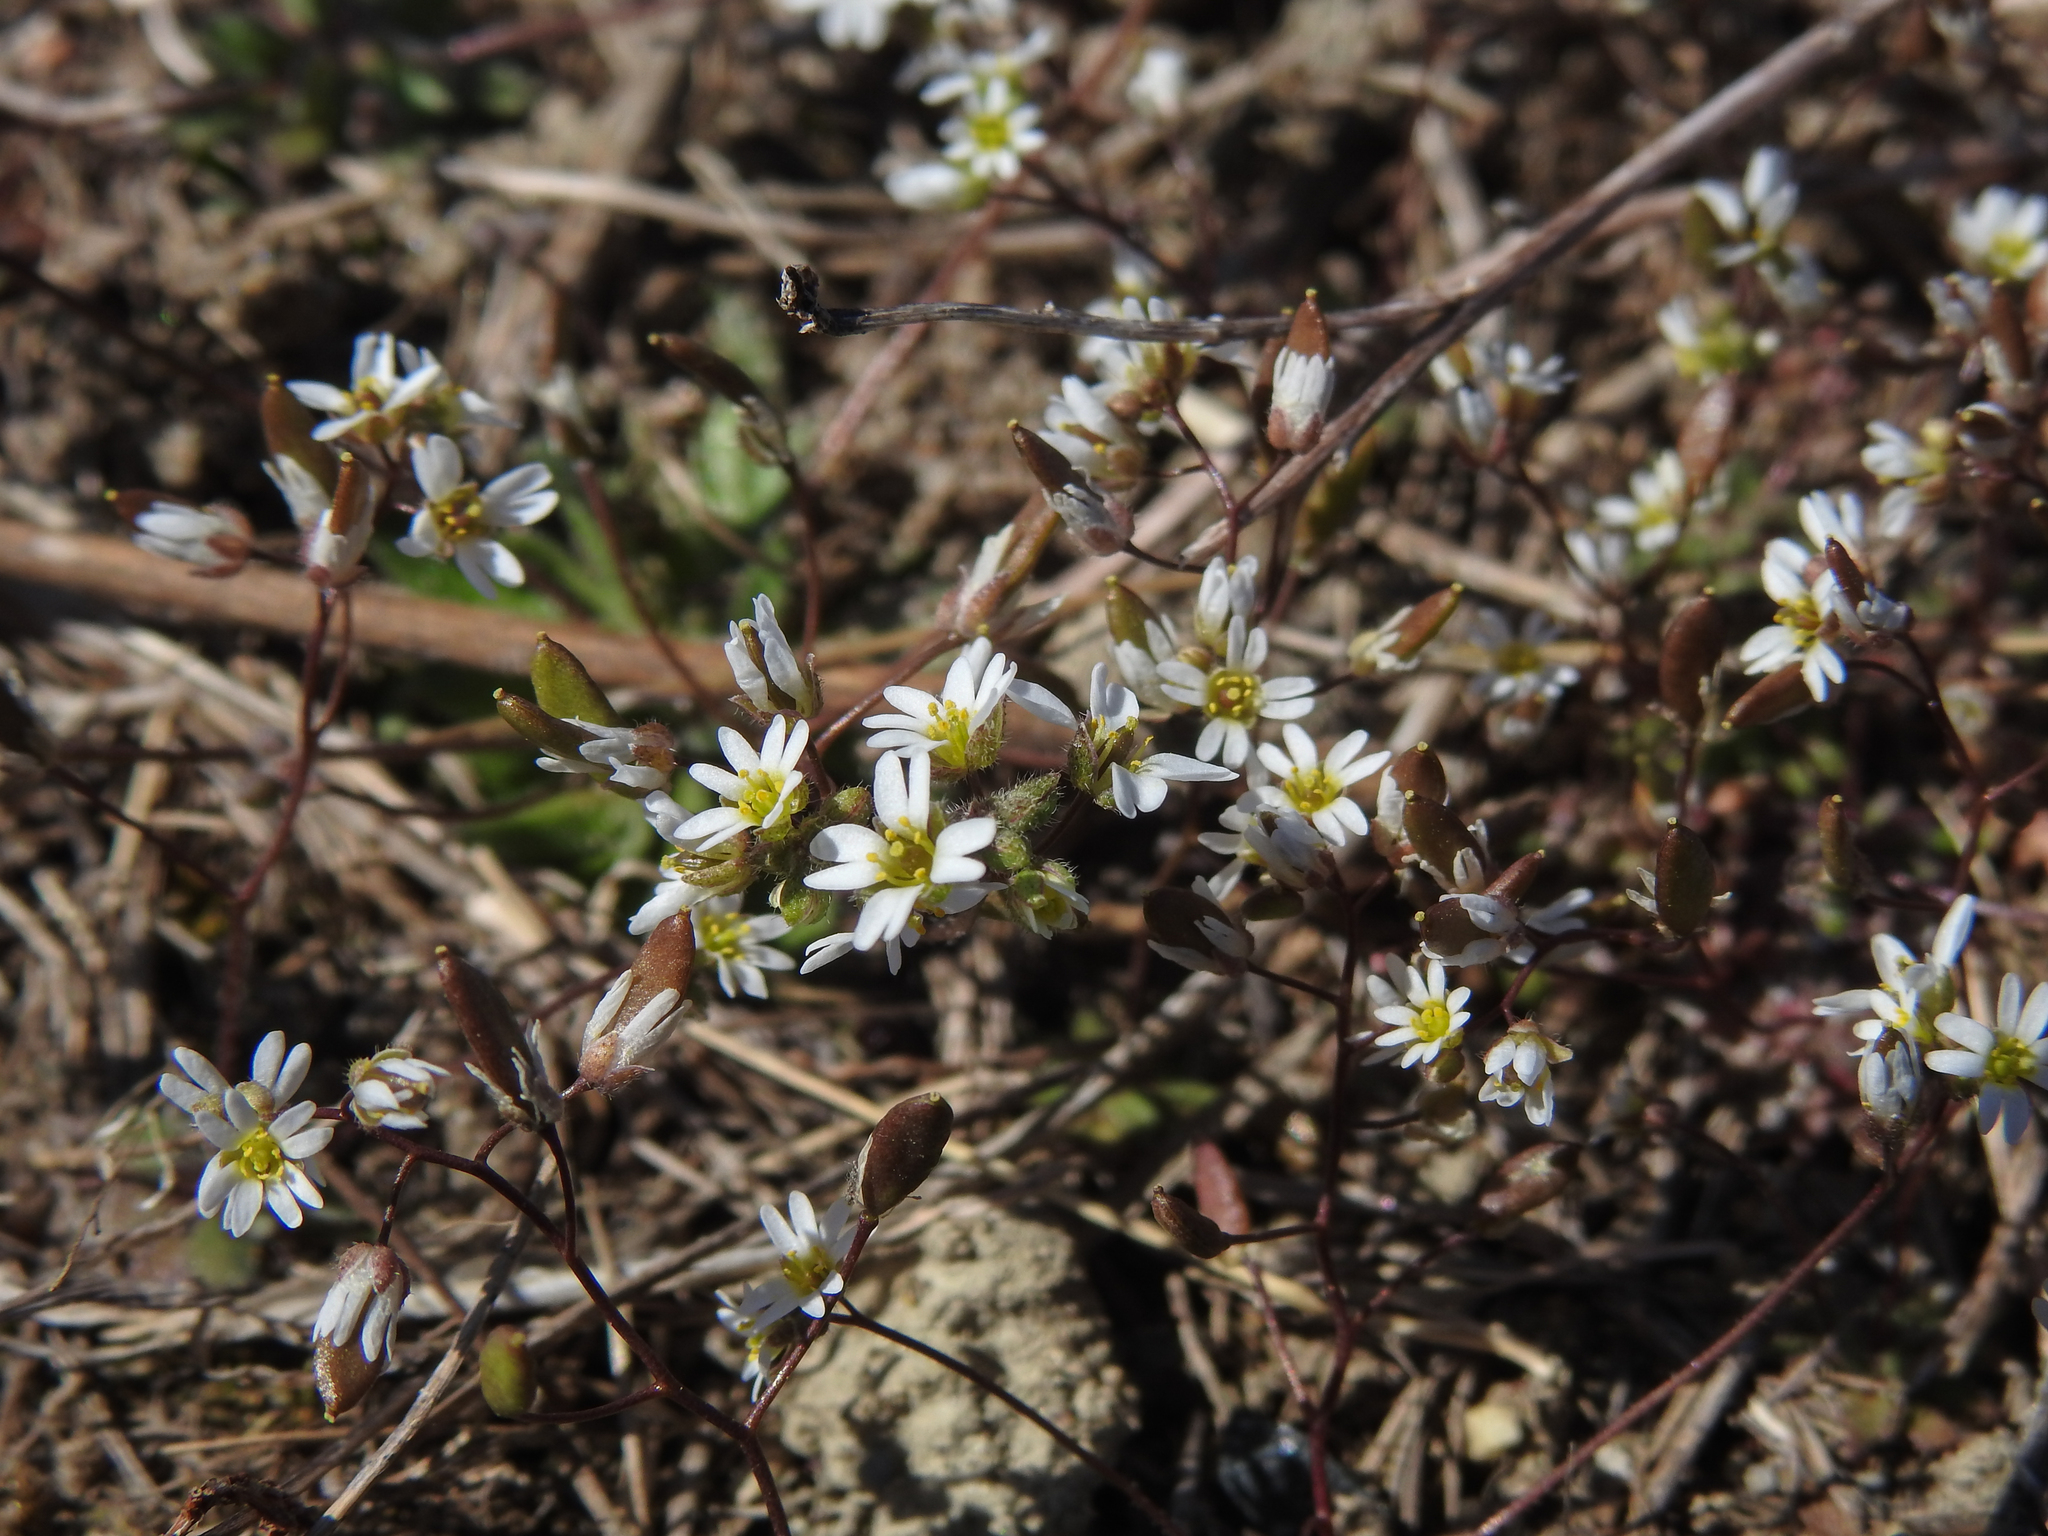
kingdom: Plantae
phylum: Tracheophyta
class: Magnoliopsida
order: Brassicales
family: Brassicaceae
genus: Draba
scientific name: Draba verna
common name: Spring draba
